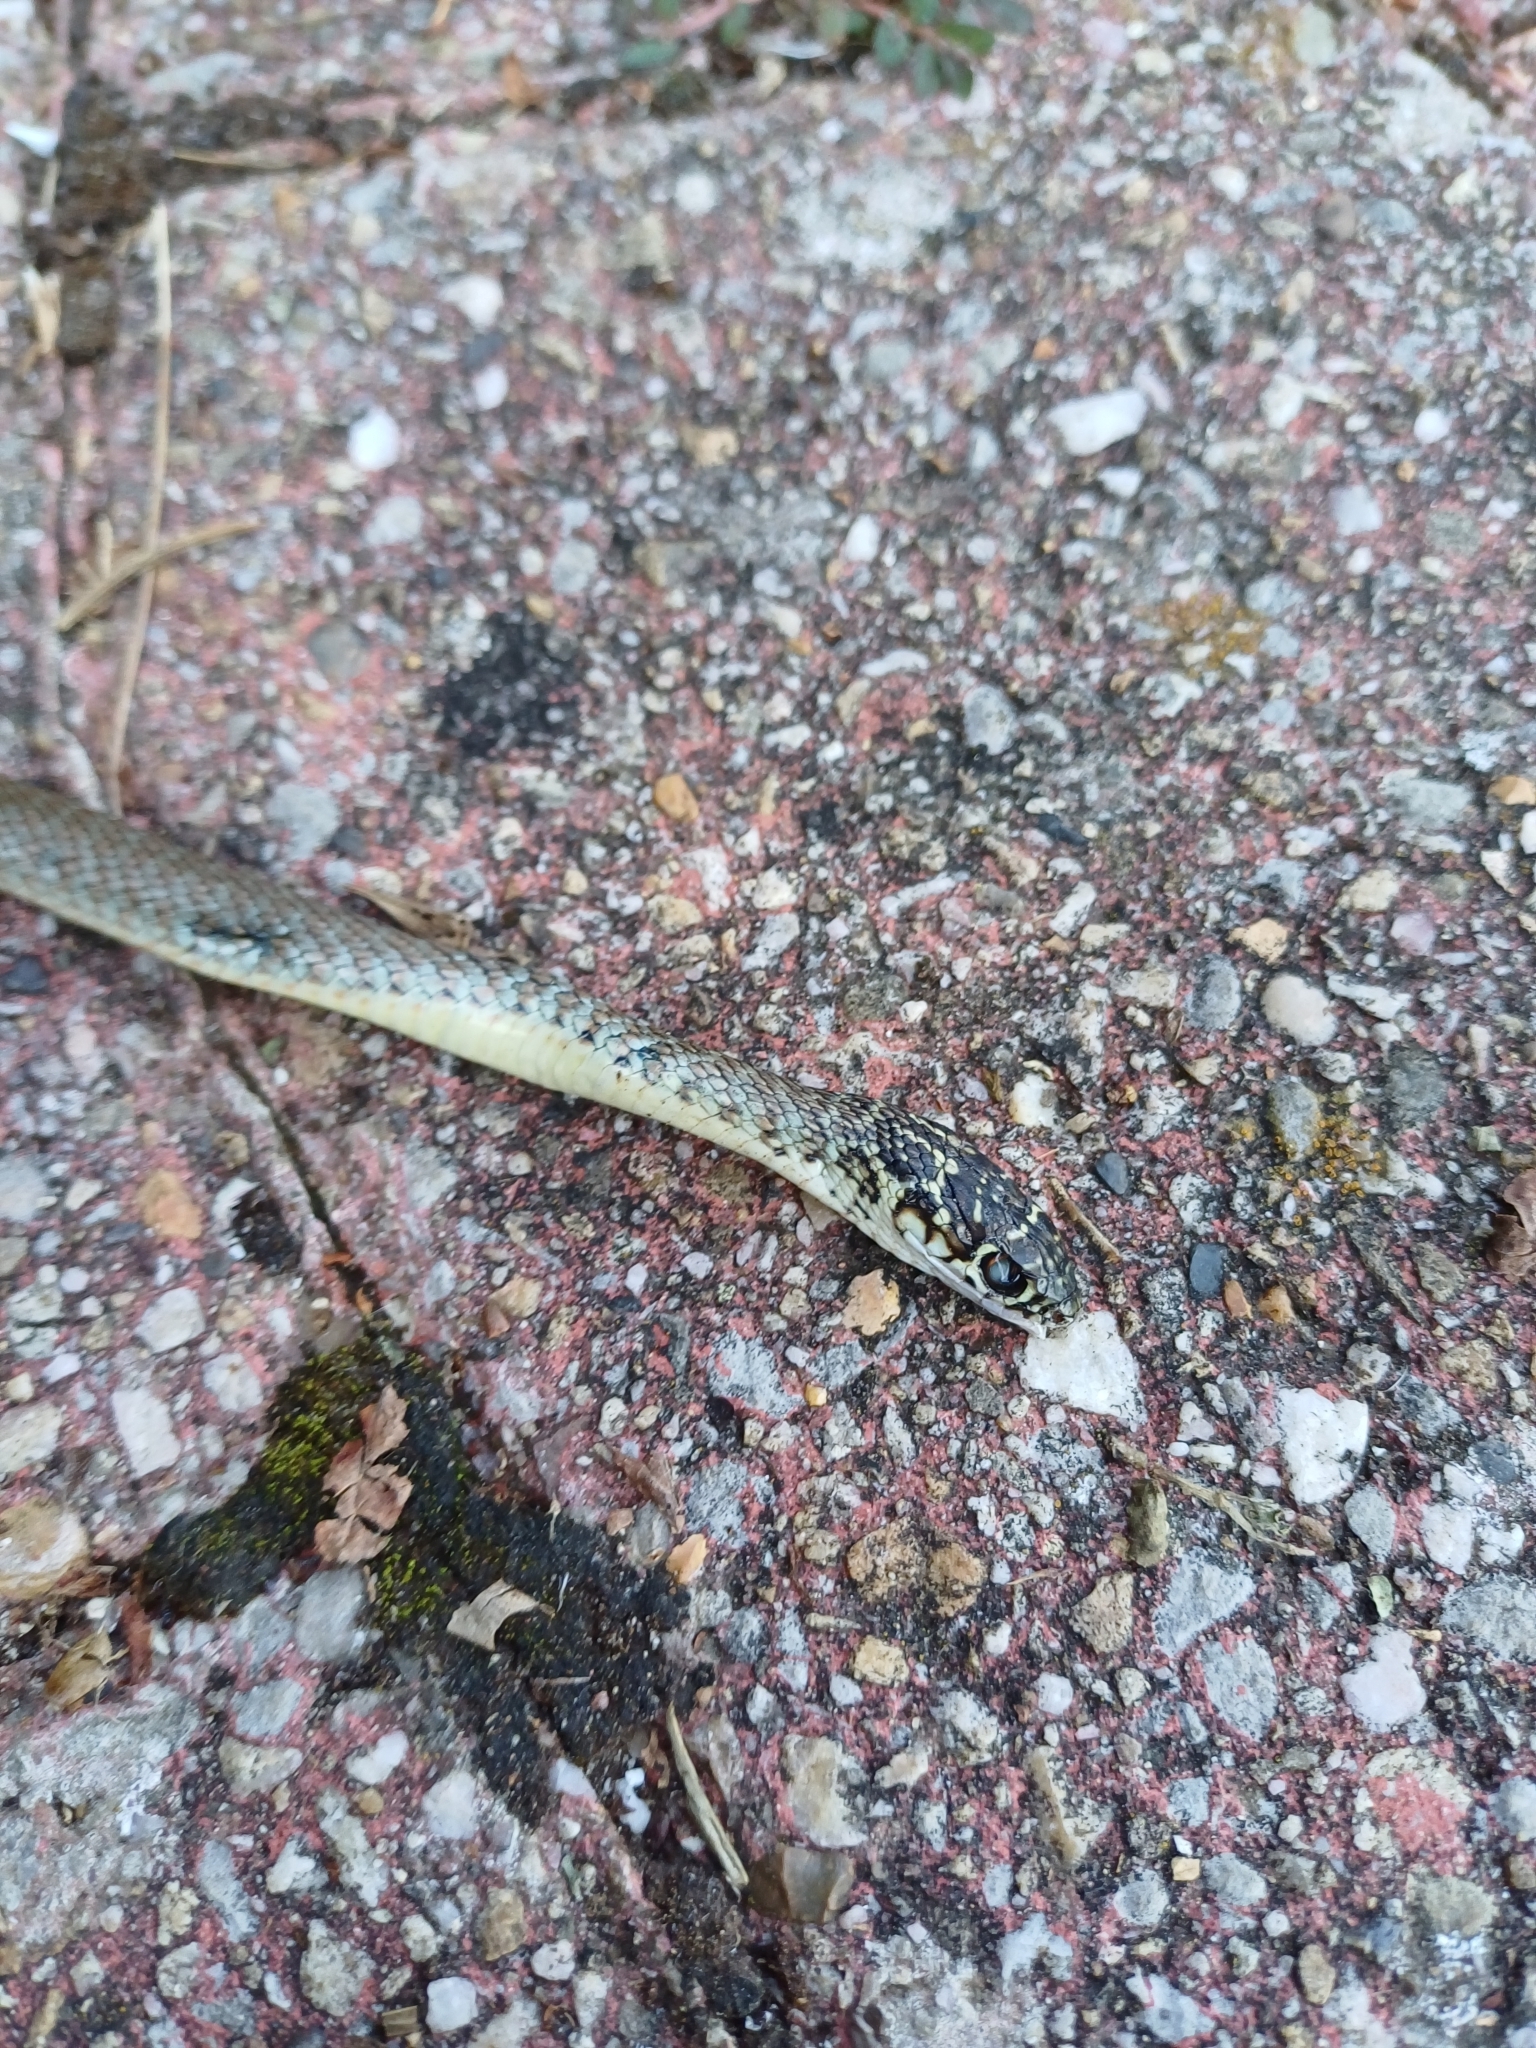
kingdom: Animalia
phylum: Chordata
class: Squamata
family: Colubridae
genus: Hierophis
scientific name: Hierophis viridiflavus
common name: Green whip snake
